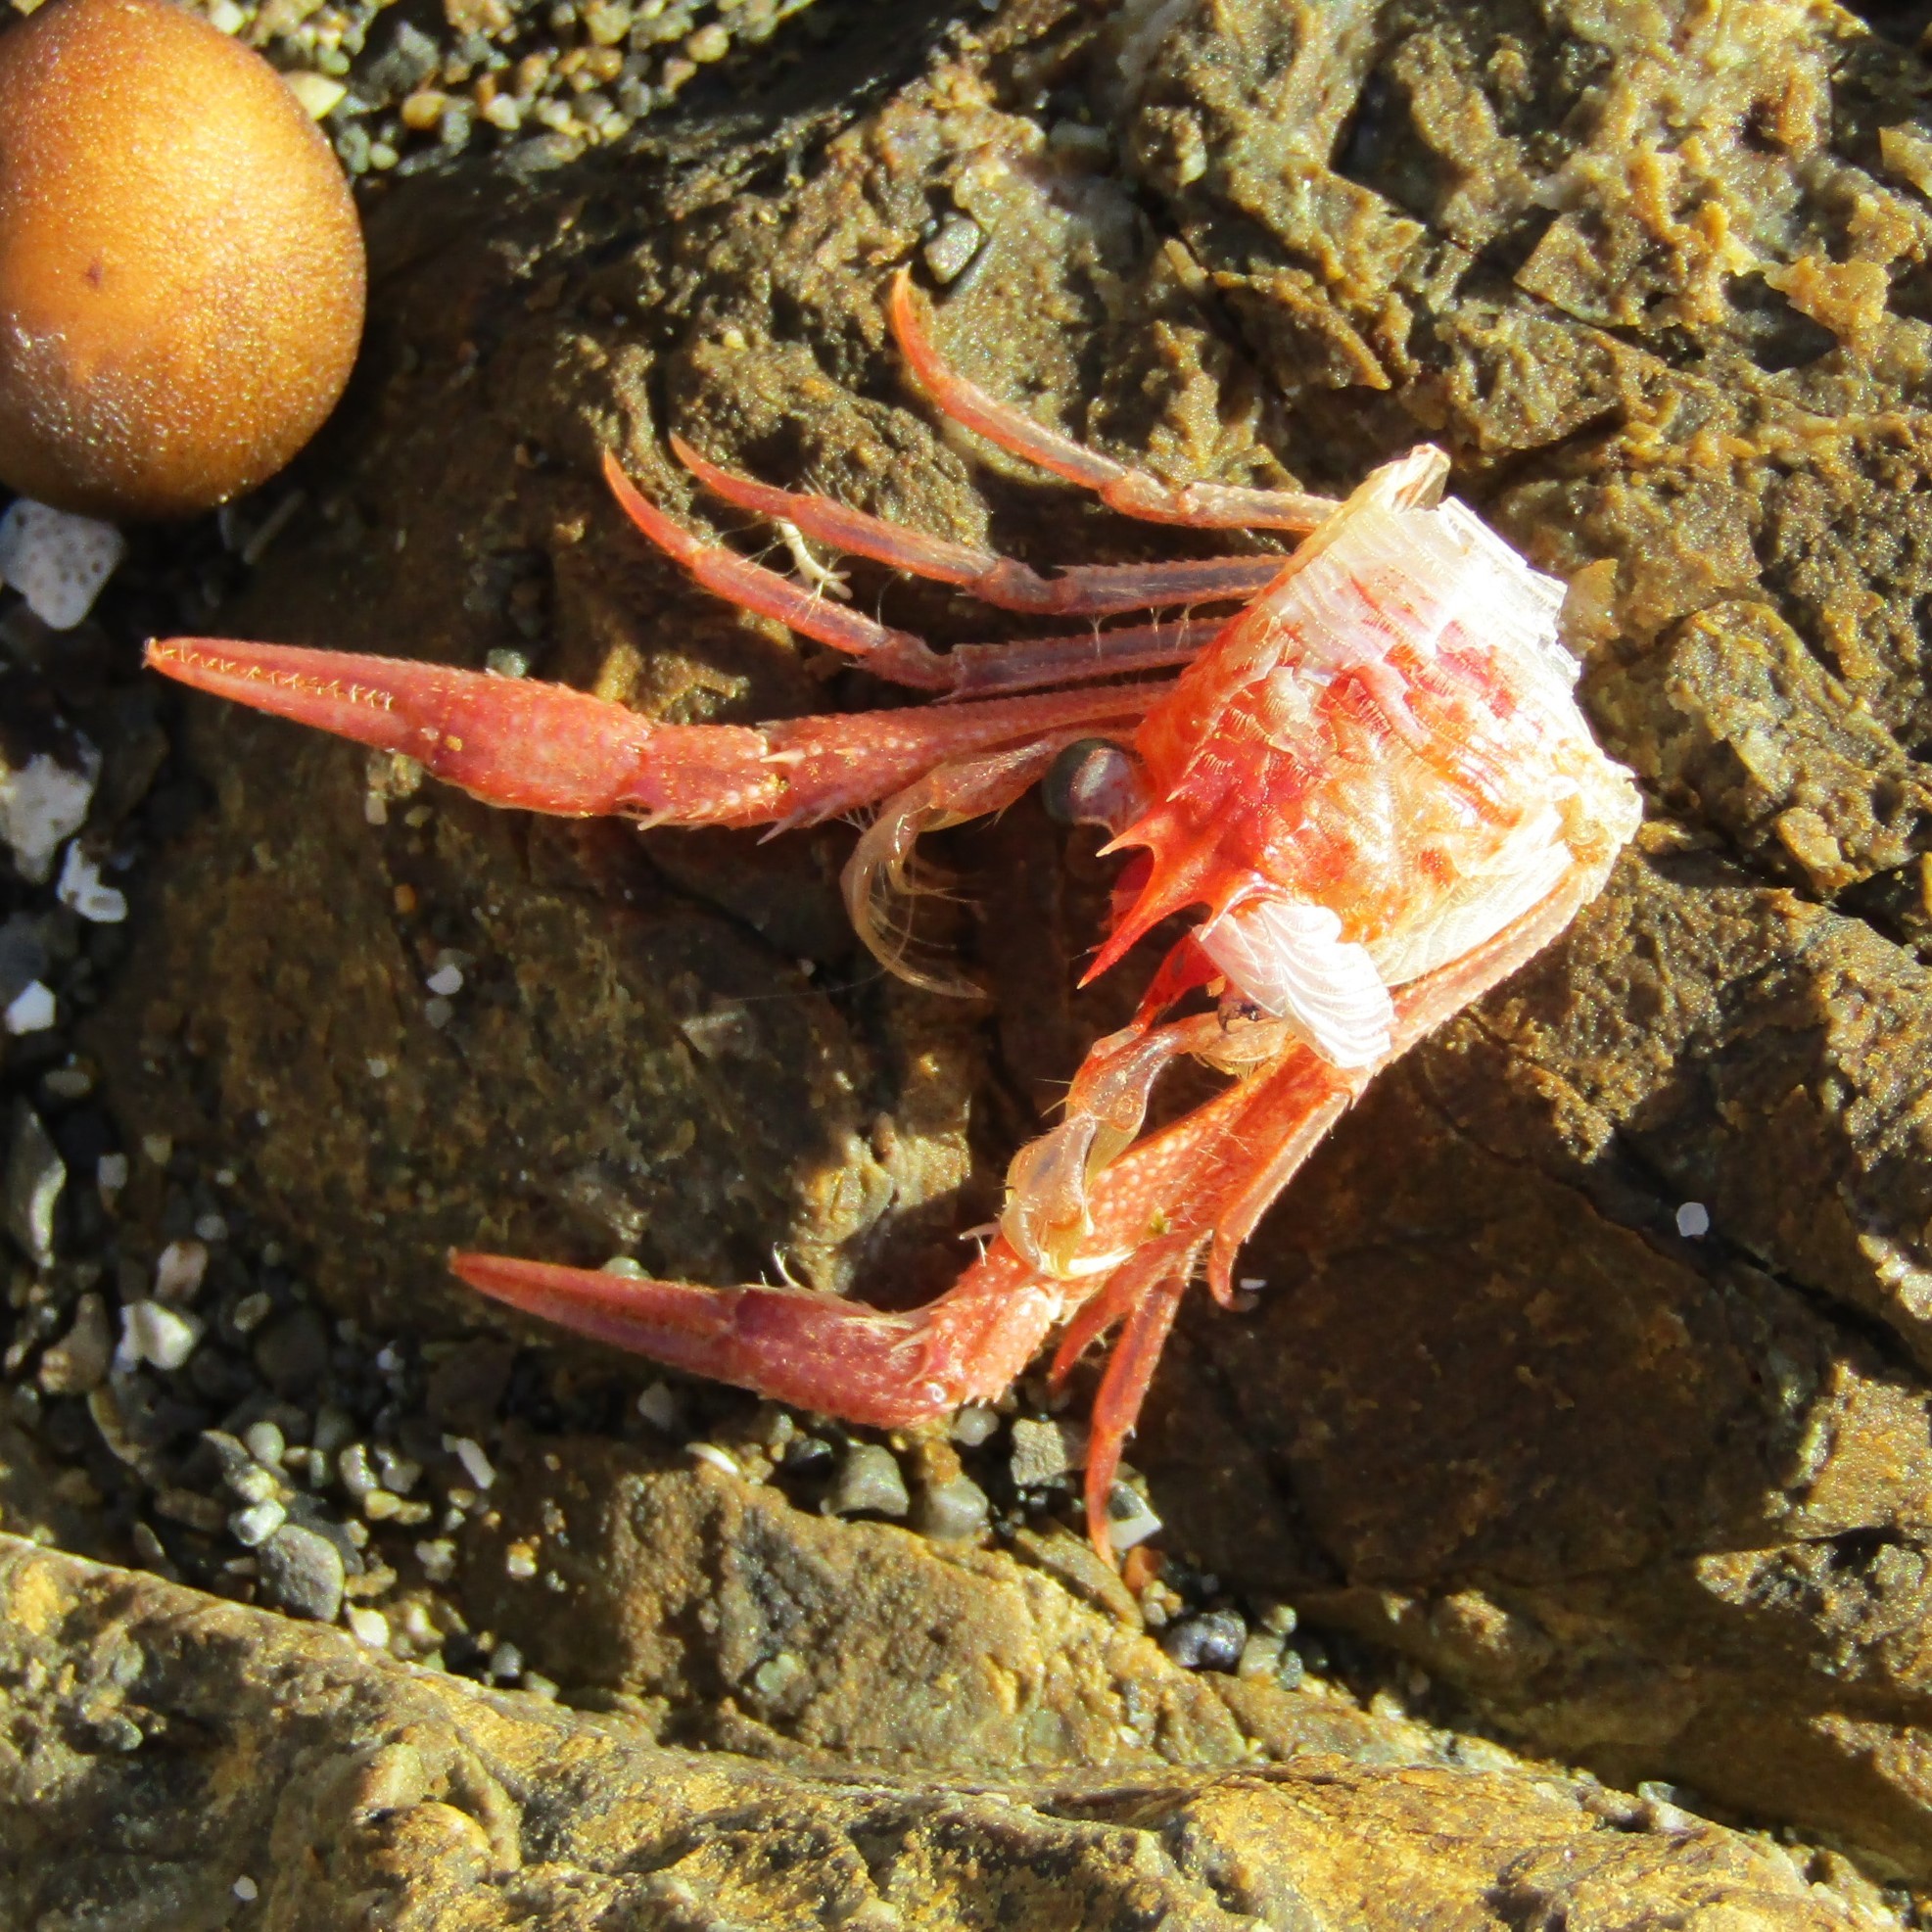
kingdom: Animalia
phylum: Arthropoda
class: Malacostraca
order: Decapoda
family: Munididae
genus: Grimothea
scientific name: Grimothea gregaria
